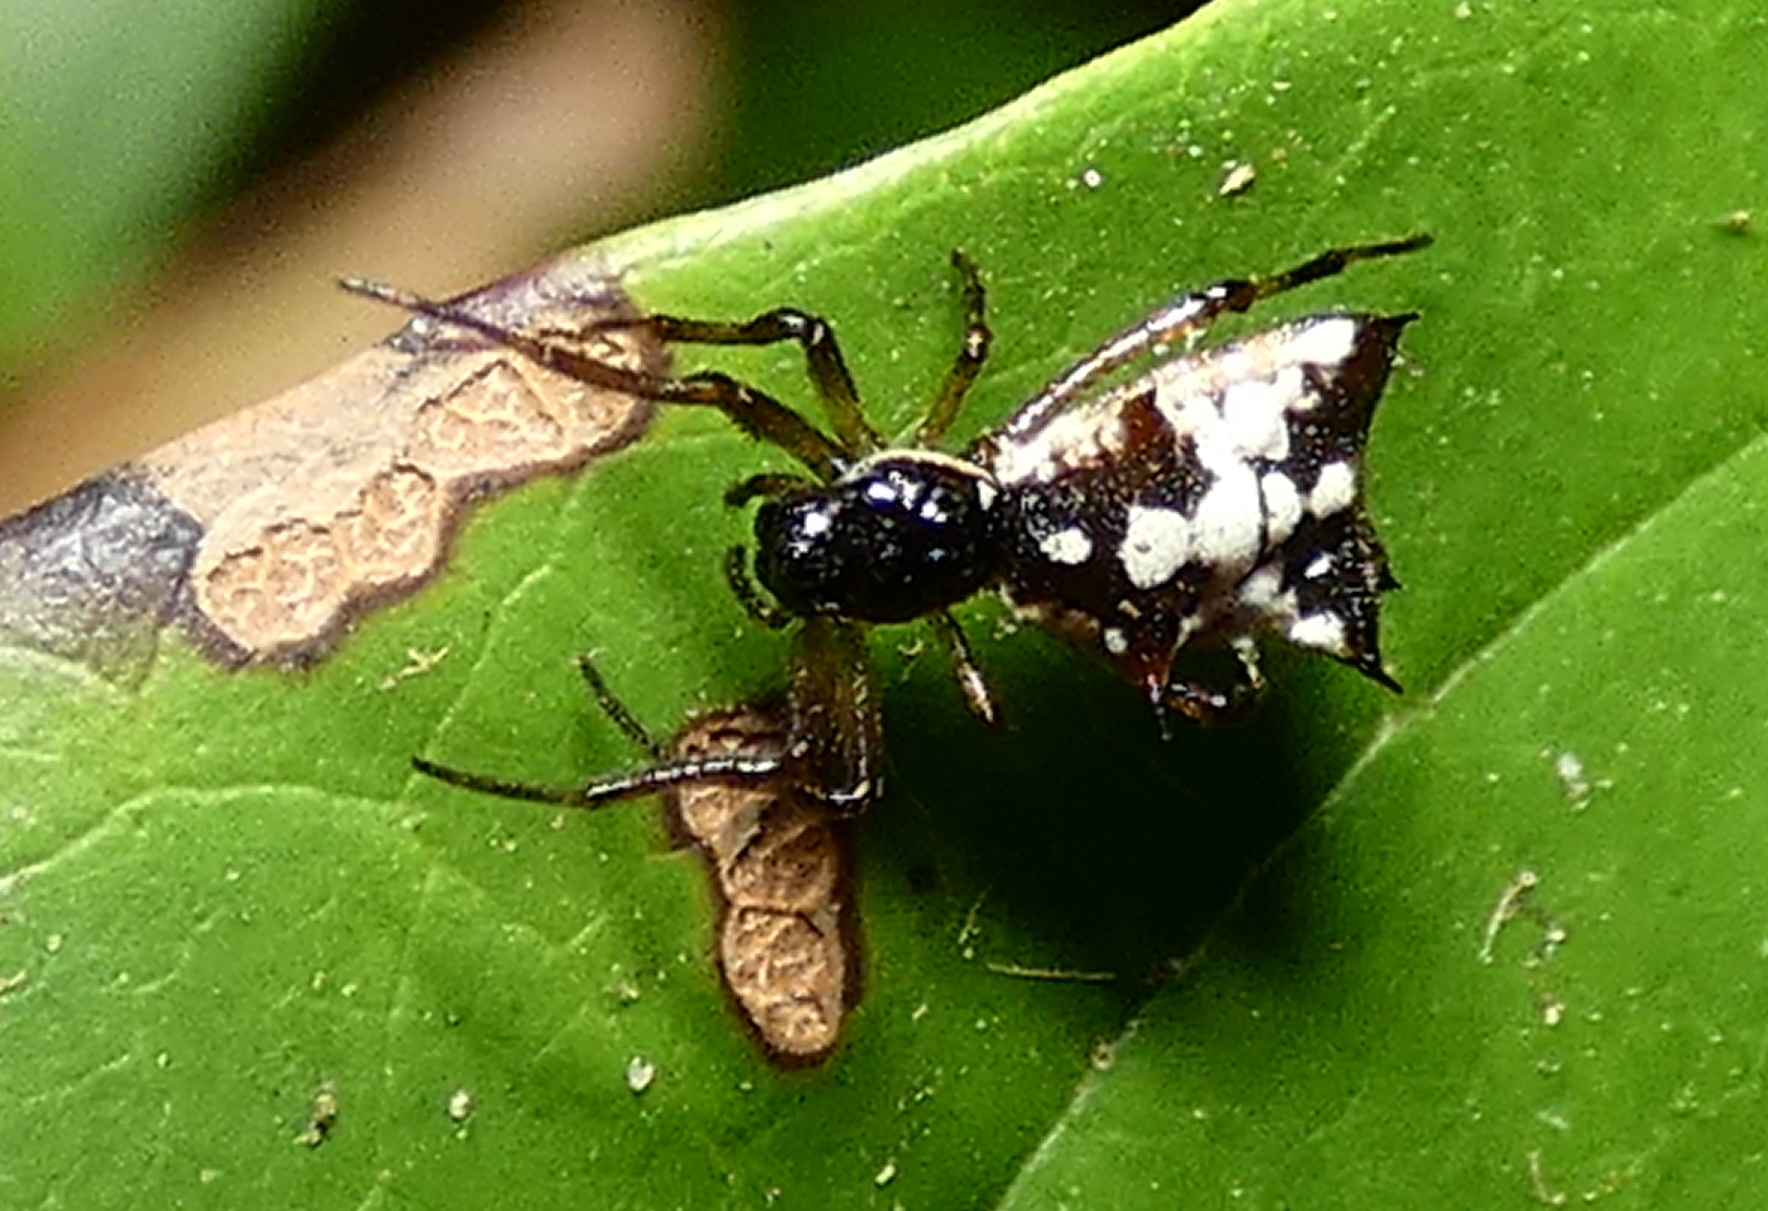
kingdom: Animalia
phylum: Arthropoda
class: Arachnida
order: Araneae
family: Araneidae
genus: Micrathena
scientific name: Micrathena picta
